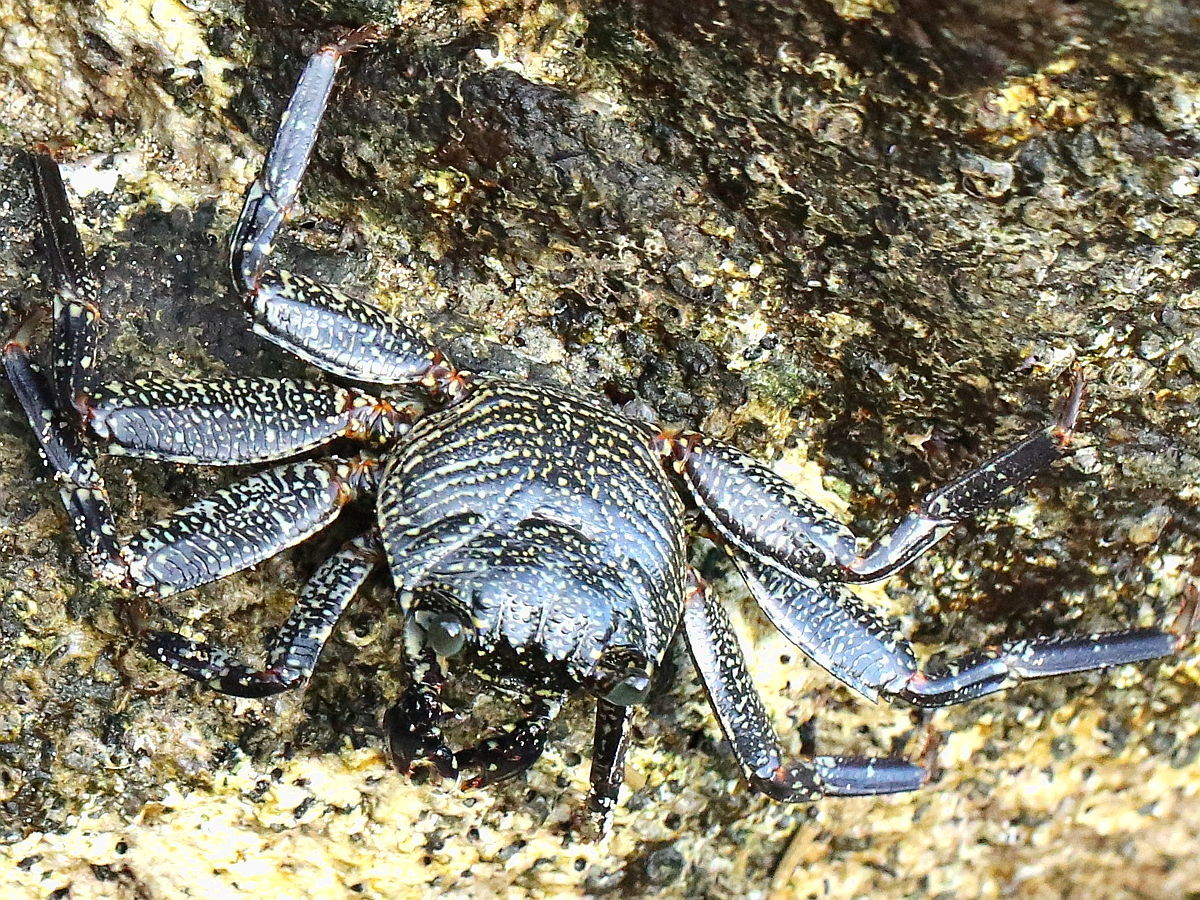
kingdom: Animalia
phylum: Arthropoda
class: Malacostraca
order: Decapoda
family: Grapsidae
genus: Grapsus
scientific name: Grapsus tenuicrustatus
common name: Natal lightfoot crab
